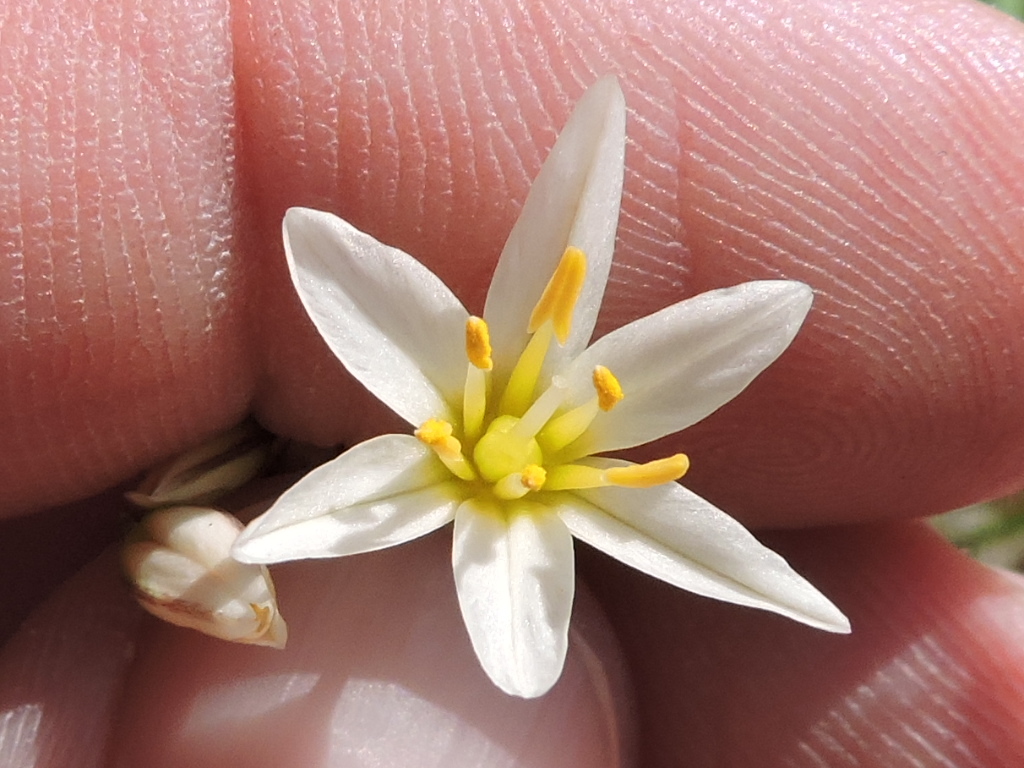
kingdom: Plantae
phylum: Tracheophyta
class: Liliopsida
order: Asparagales
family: Amaryllidaceae
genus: Nothoscordum
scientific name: Nothoscordum bivalve
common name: Crow-poison
